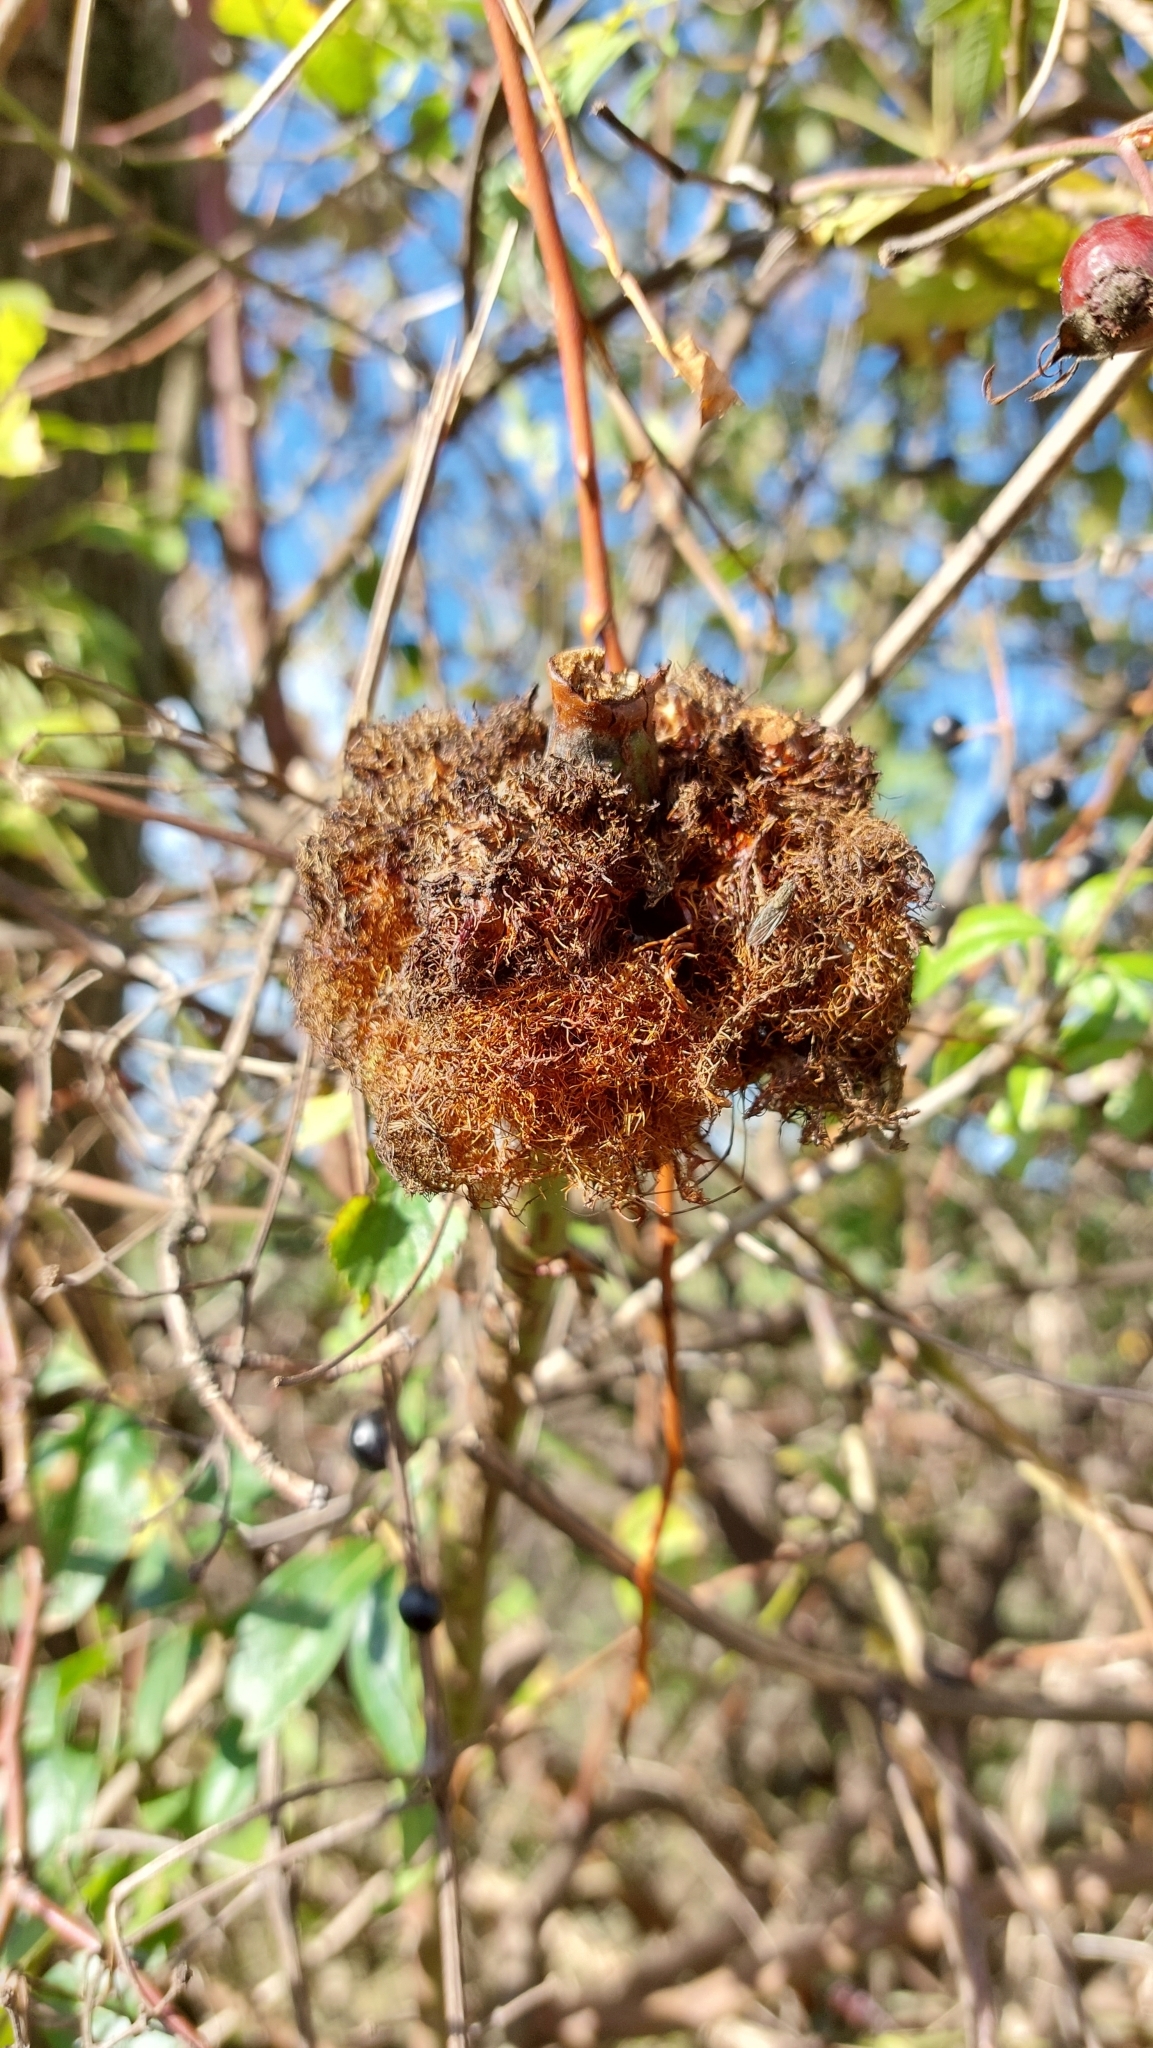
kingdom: Animalia
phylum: Arthropoda
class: Insecta
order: Hymenoptera
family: Cynipidae
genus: Diplolepis
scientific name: Diplolepis rosae
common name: Bedeguar gall
